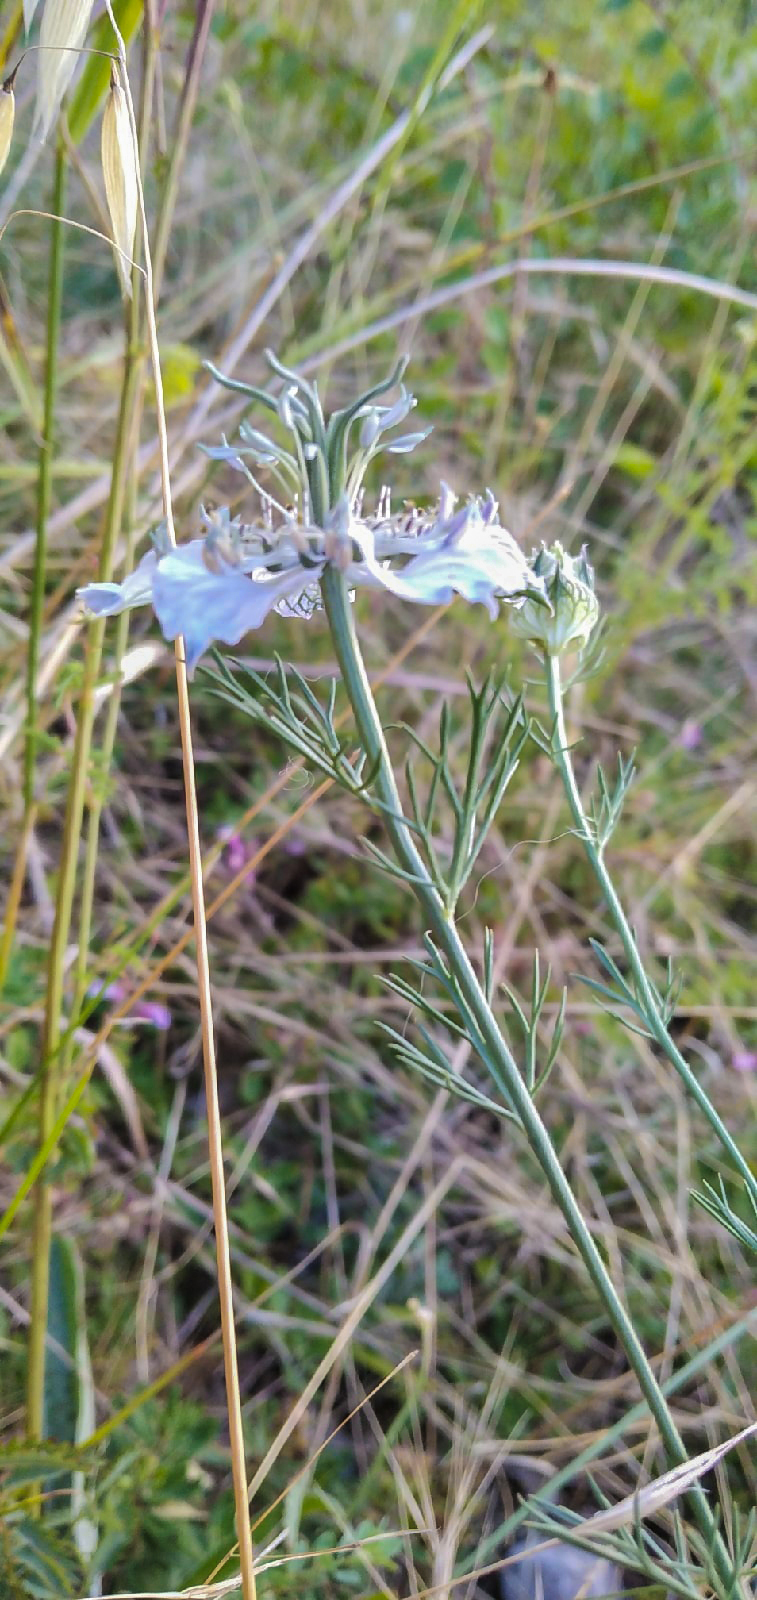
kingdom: Plantae
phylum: Tracheophyta
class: Magnoliopsida
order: Ranunculales
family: Ranunculaceae
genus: Nigella
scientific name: Nigella arvensis
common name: Wild fennel-flower
